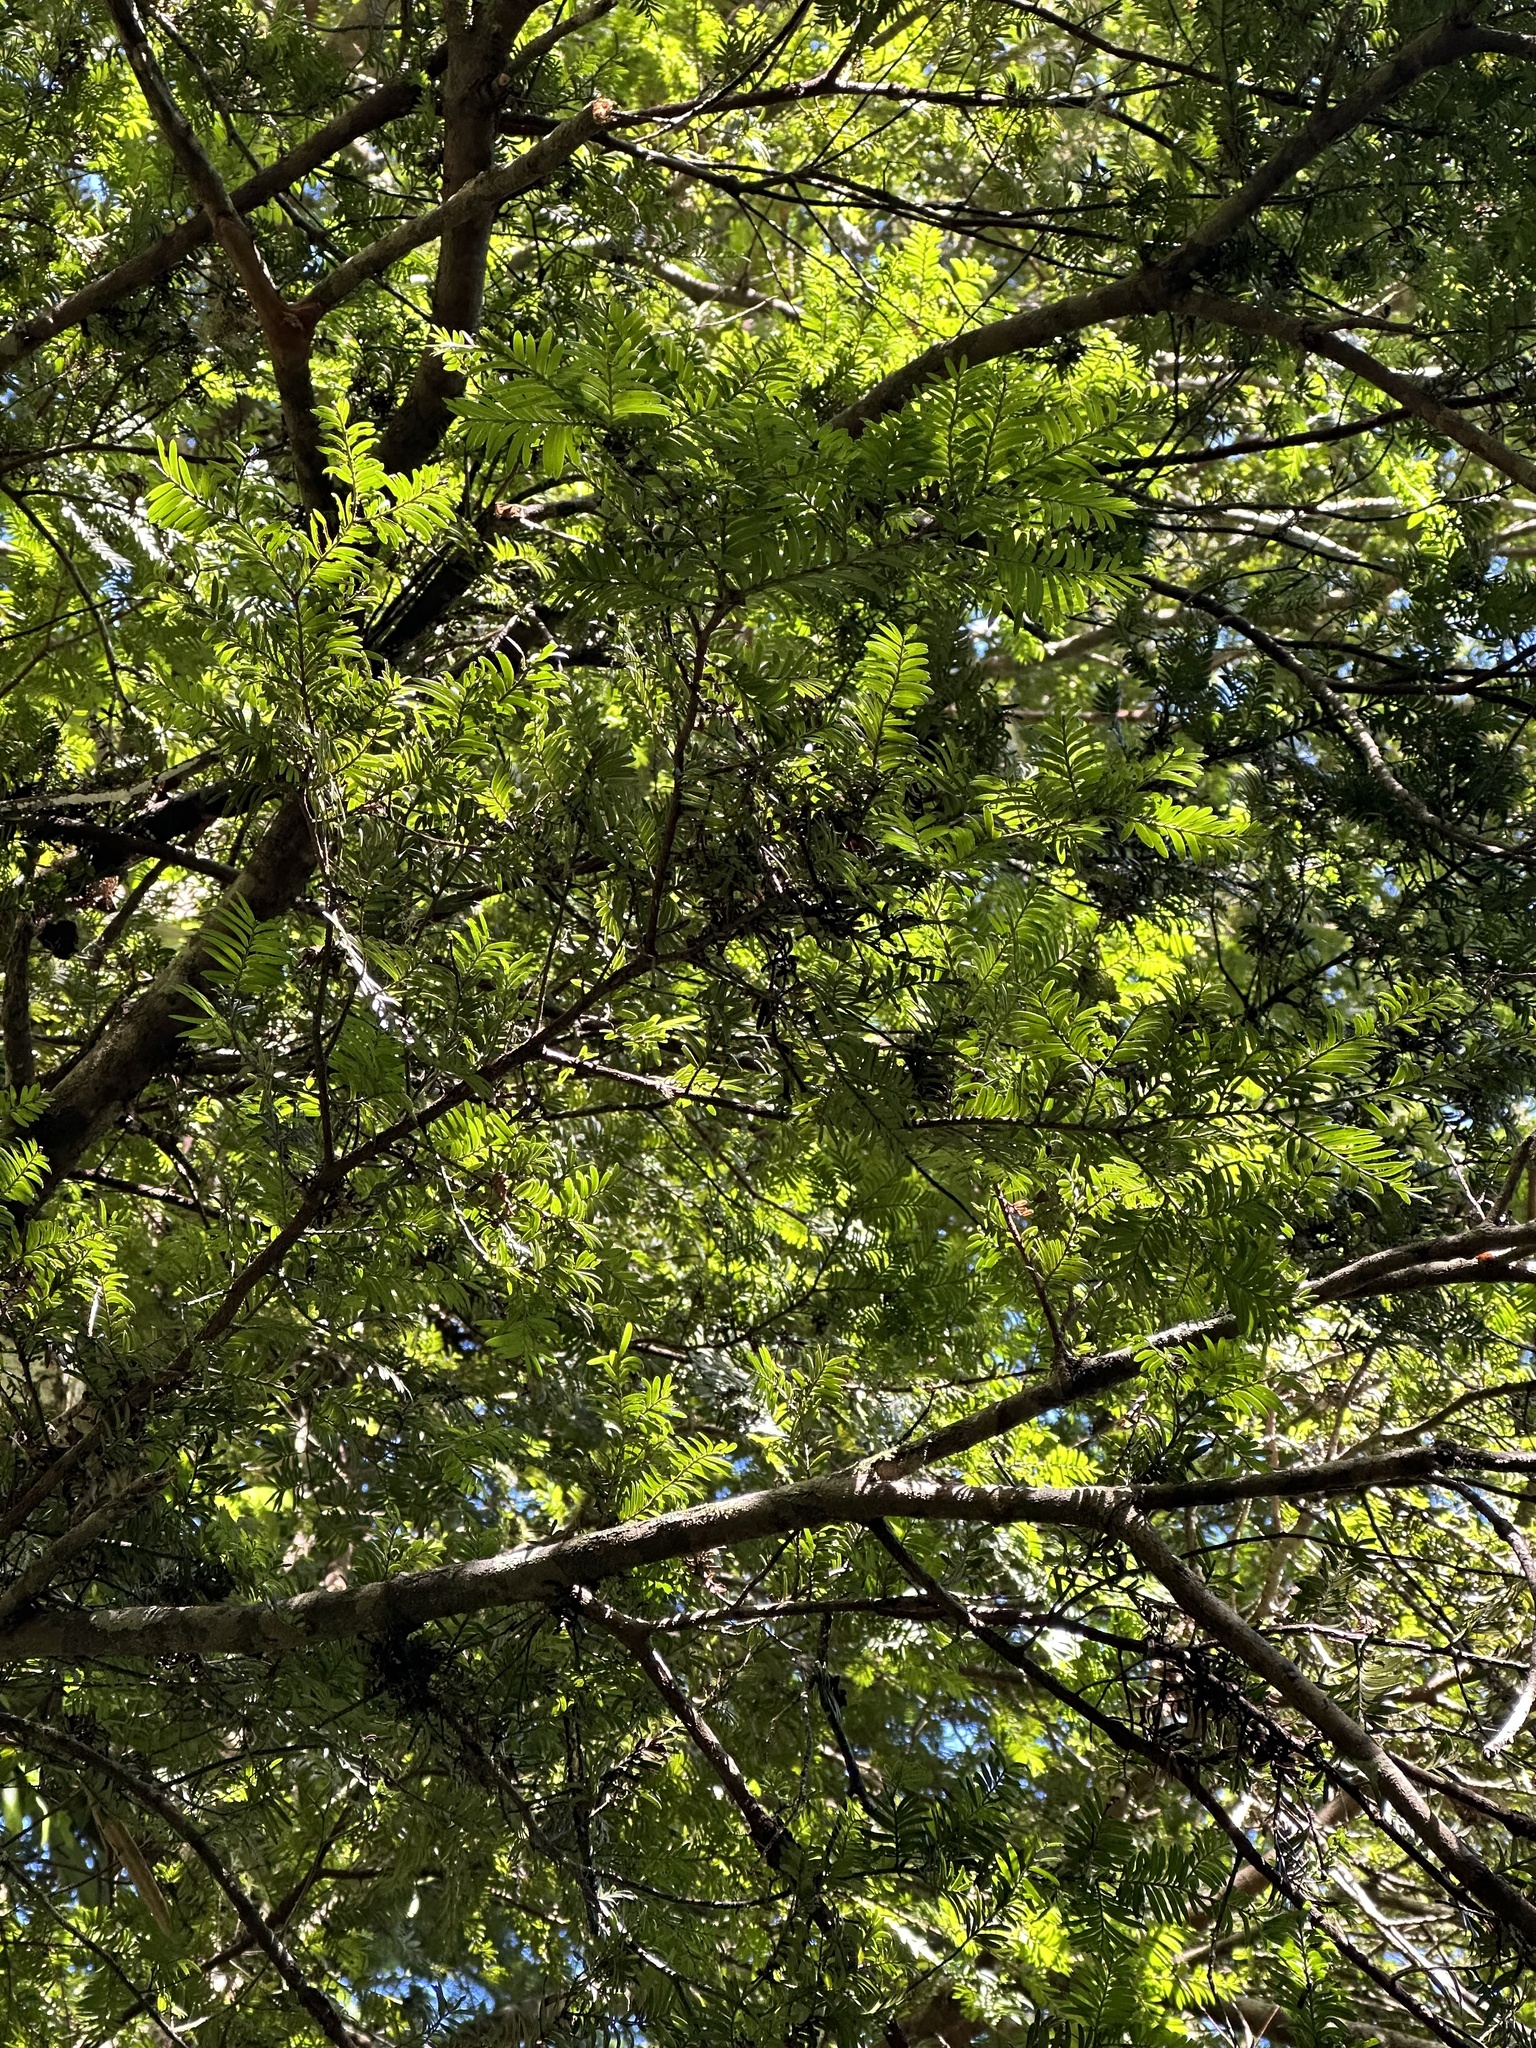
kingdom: Plantae
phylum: Tracheophyta
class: Pinopsida
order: Pinales
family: Podocarpaceae
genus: Prumnopitys
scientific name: Prumnopitys ferruginea
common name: Brown pine
